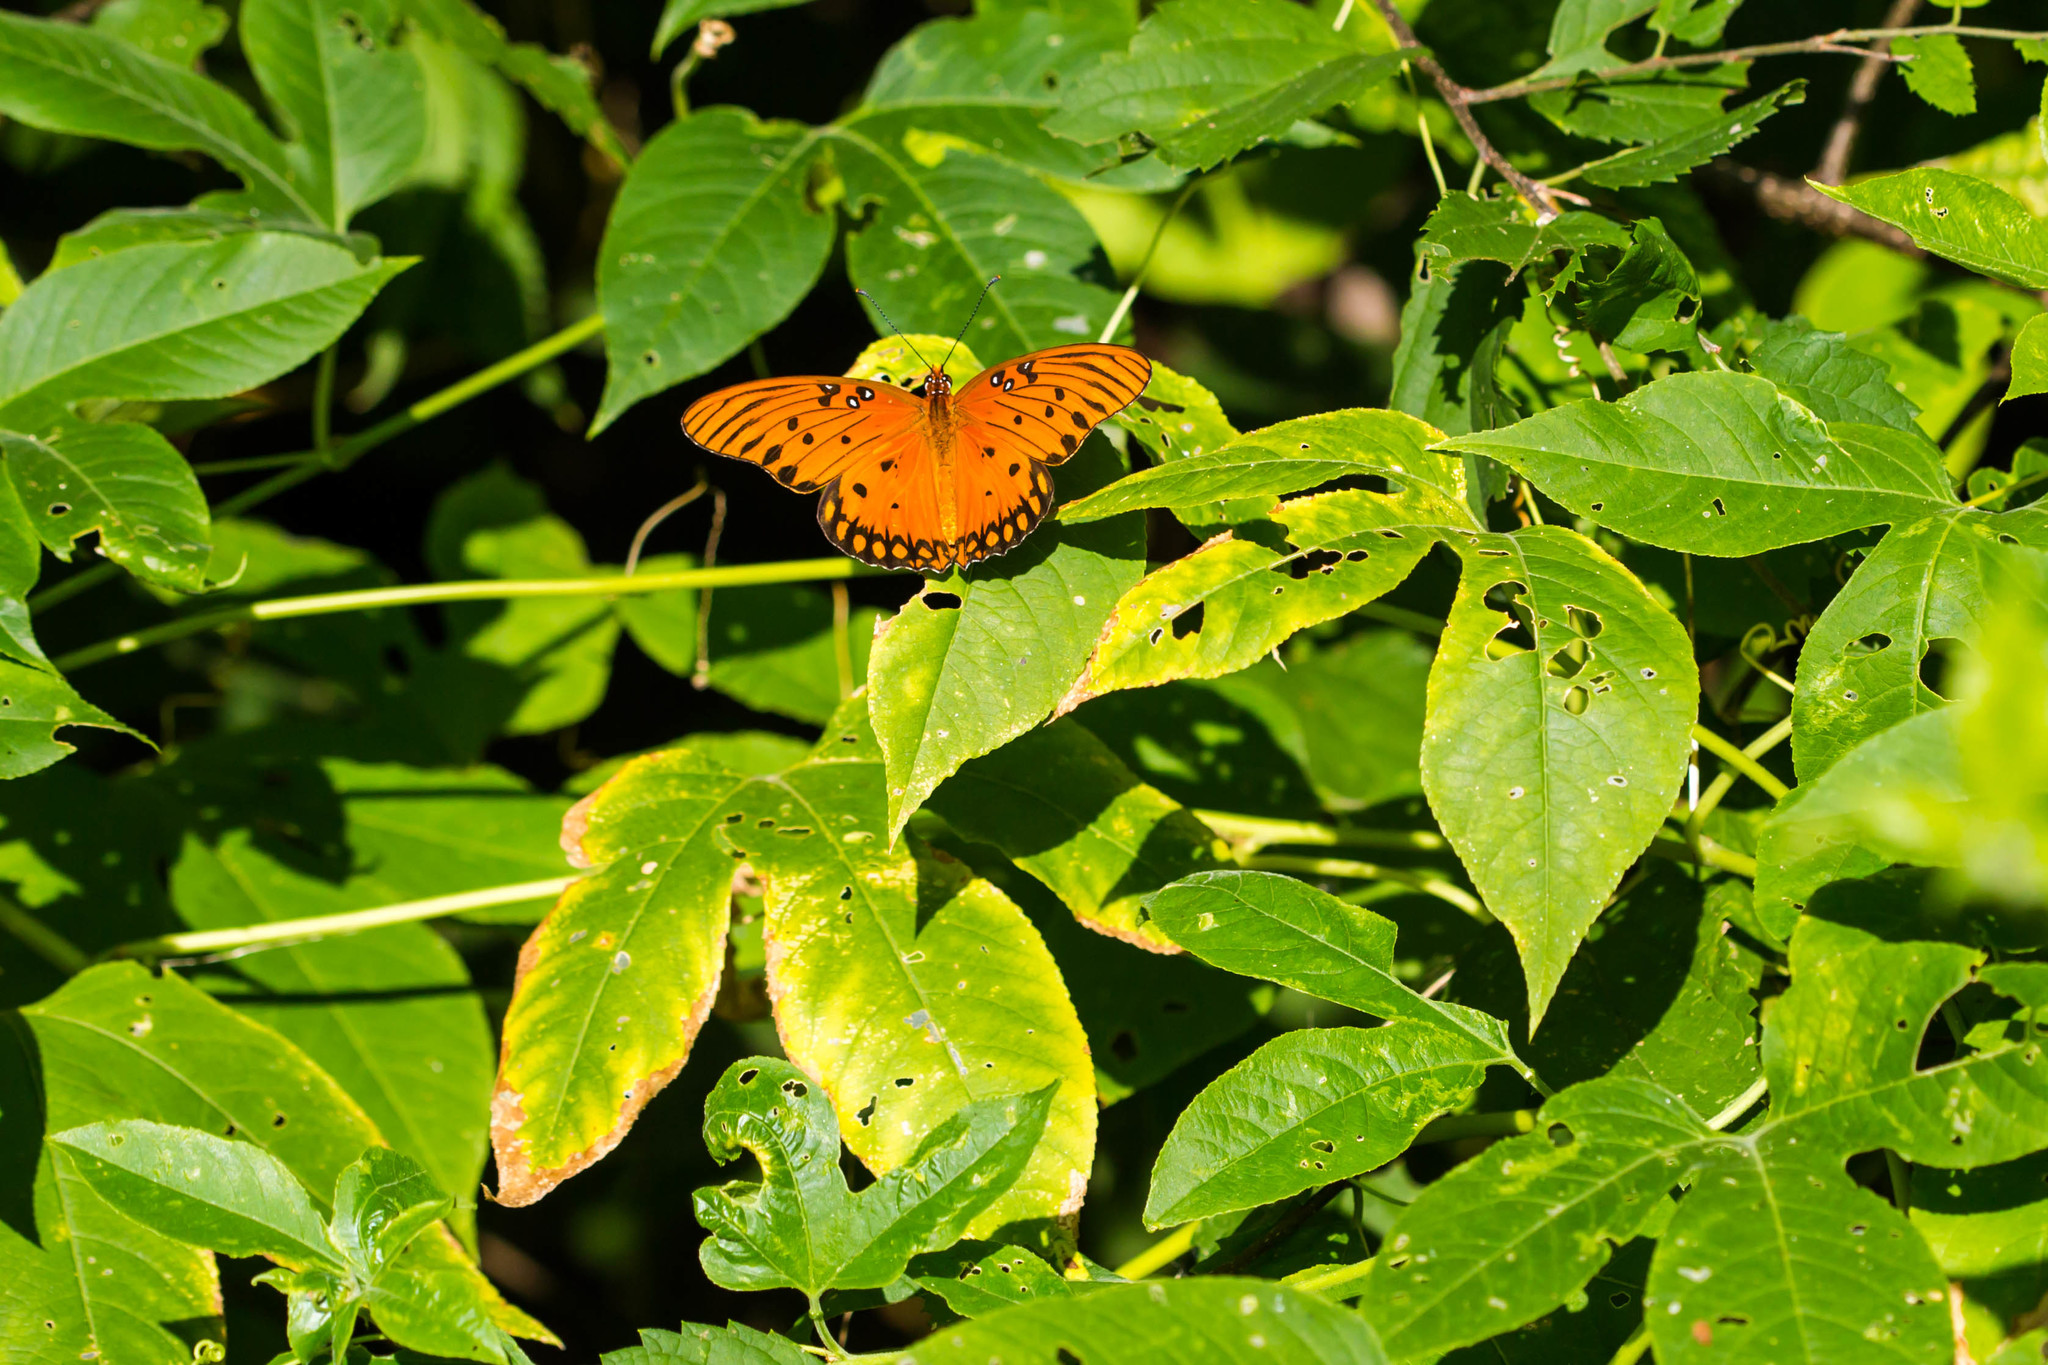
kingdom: Animalia
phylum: Arthropoda
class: Insecta
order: Lepidoptera
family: Nymphalidae
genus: Dione
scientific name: Dione vanillae
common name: Gulf fritillary
